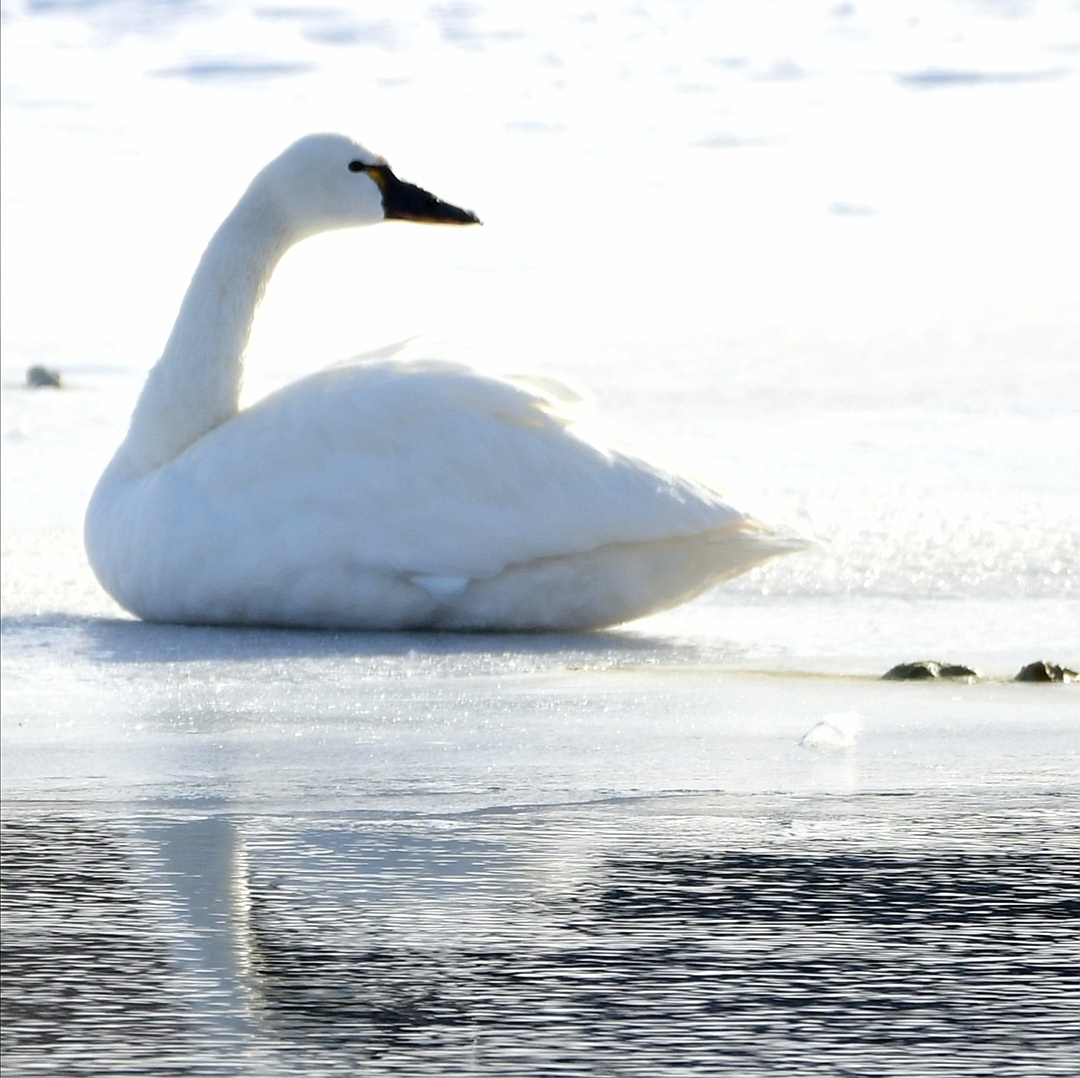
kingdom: Animalia
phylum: Chordata
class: Aves
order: Anseriformes
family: Anatidae
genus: Cygnus
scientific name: Cygnus columbianus
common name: Tundra swan
